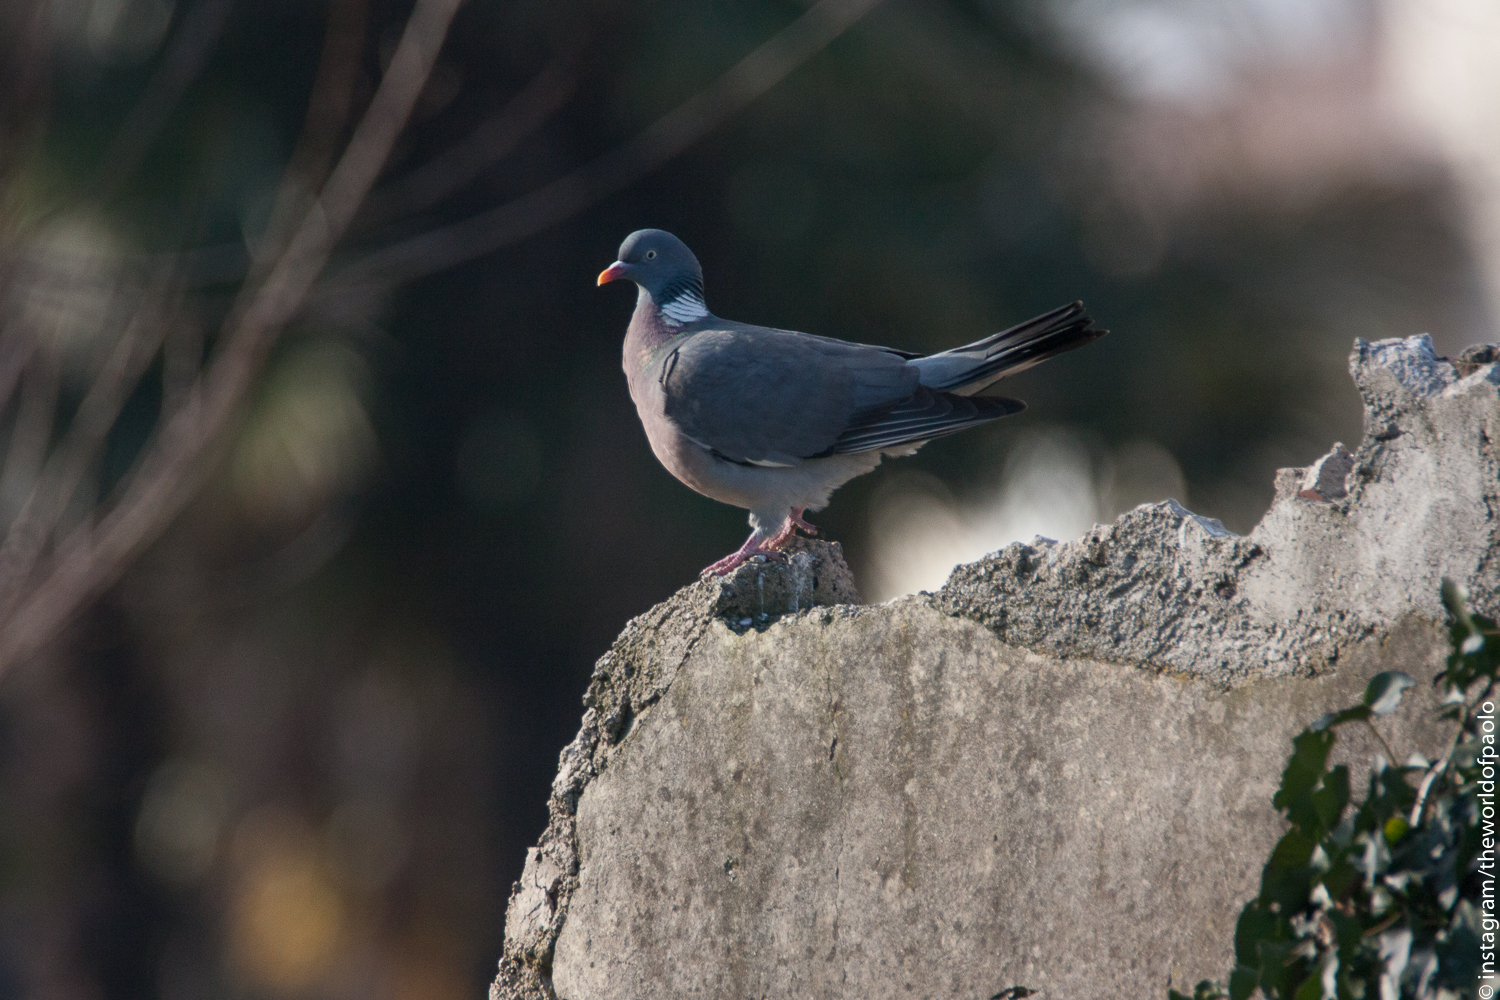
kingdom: Animalia
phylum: Chordata
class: Aves
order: Columbiformes
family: Columbidae
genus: Columba
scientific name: Columba palumbus
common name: Common wood pigeon
